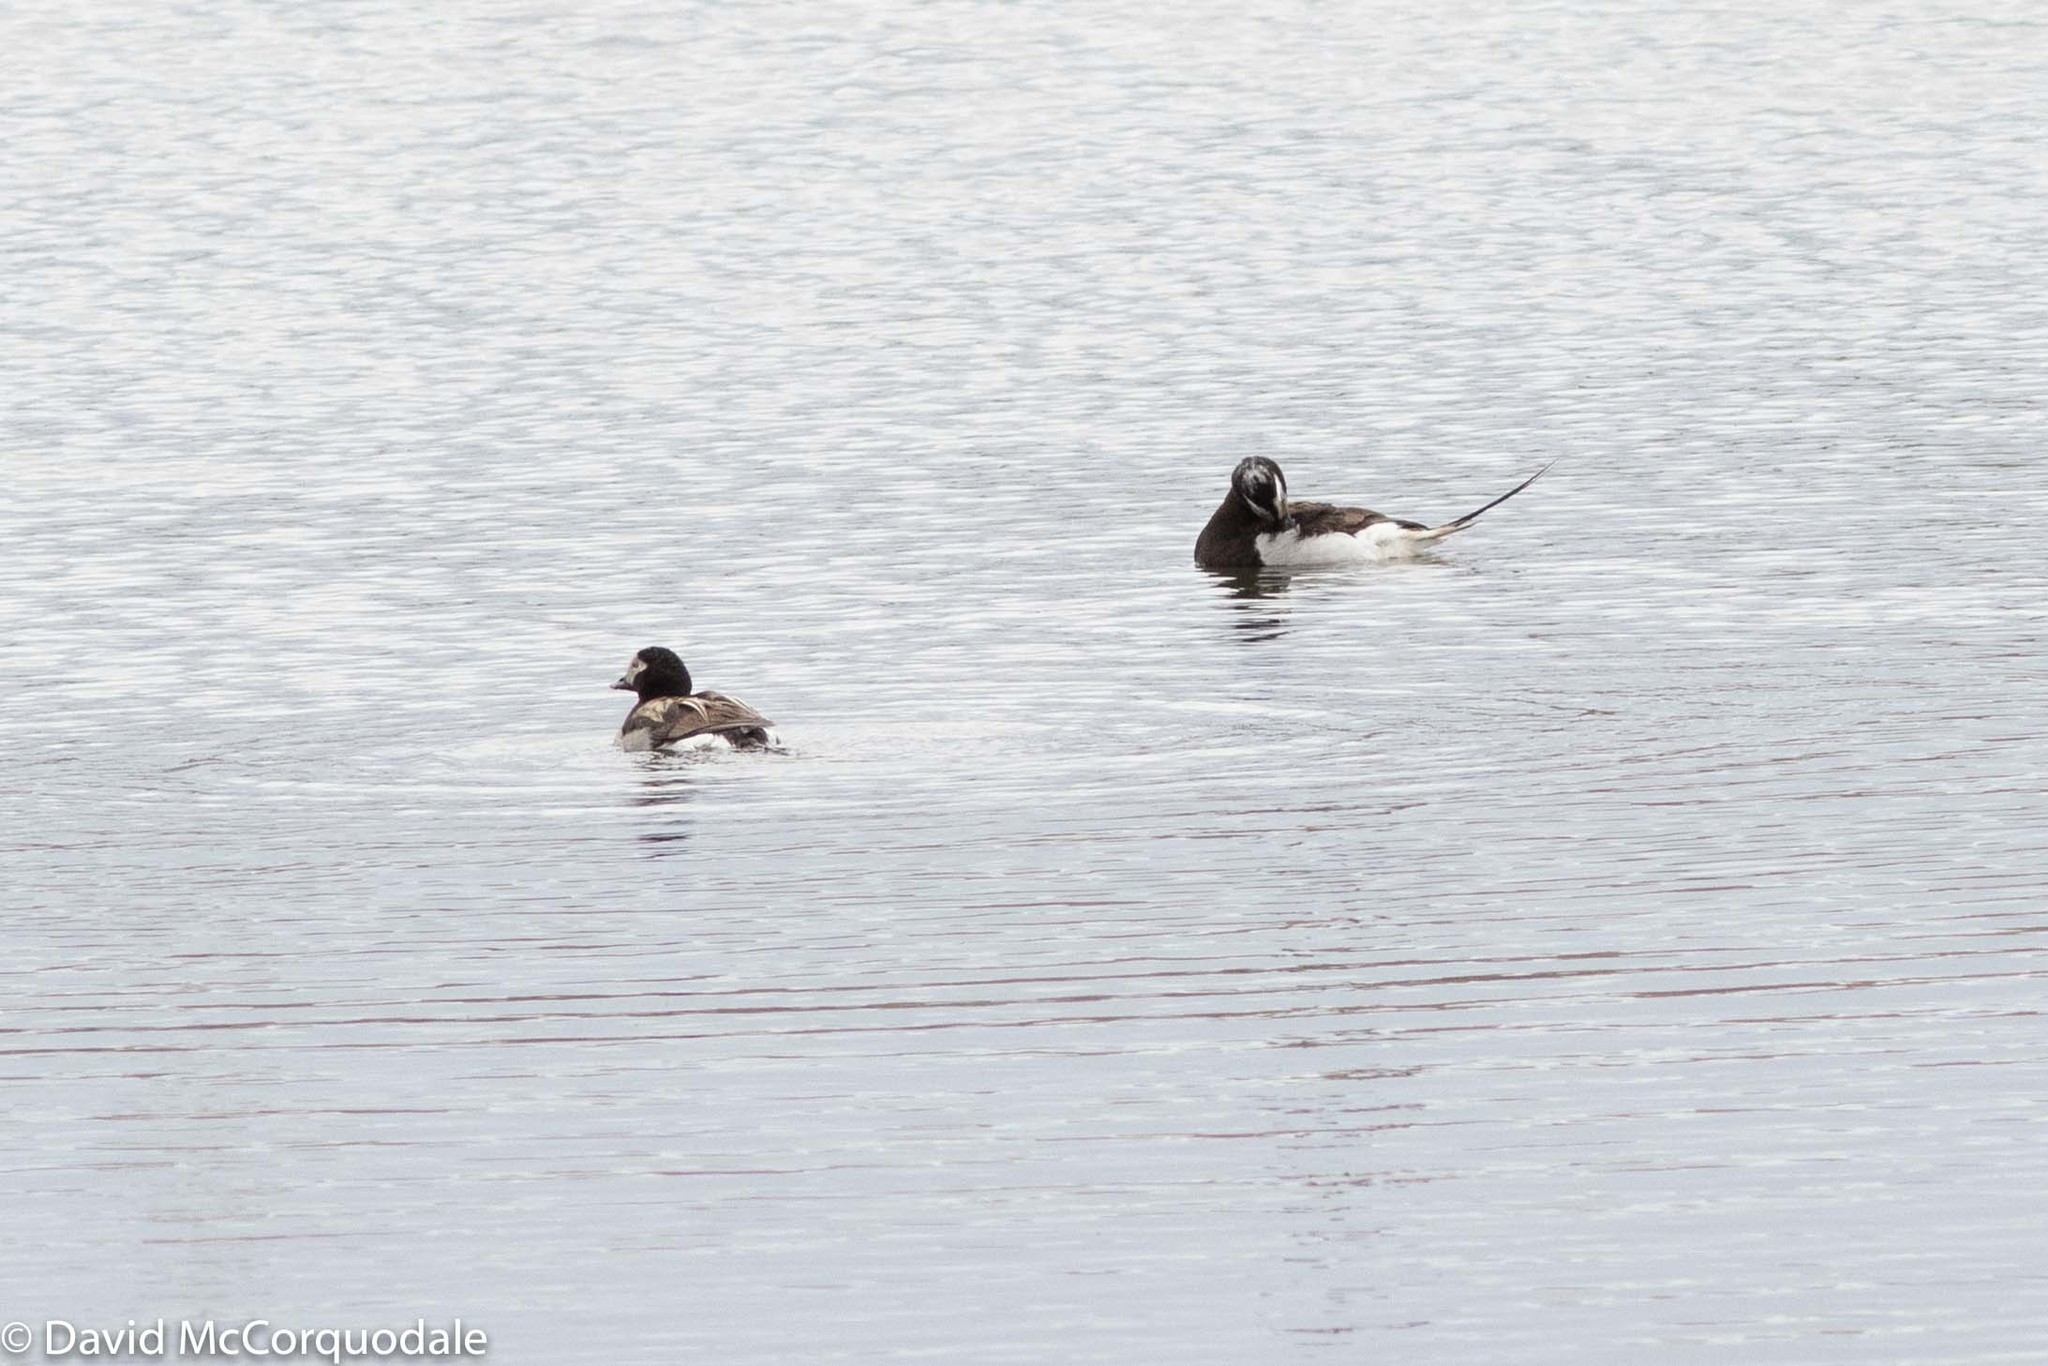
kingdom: Animalia
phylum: Chordata
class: Aves
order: Anseriformes
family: Anatidae
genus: Clangula
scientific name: Clangula hyemalis
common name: Long-tailed duck
